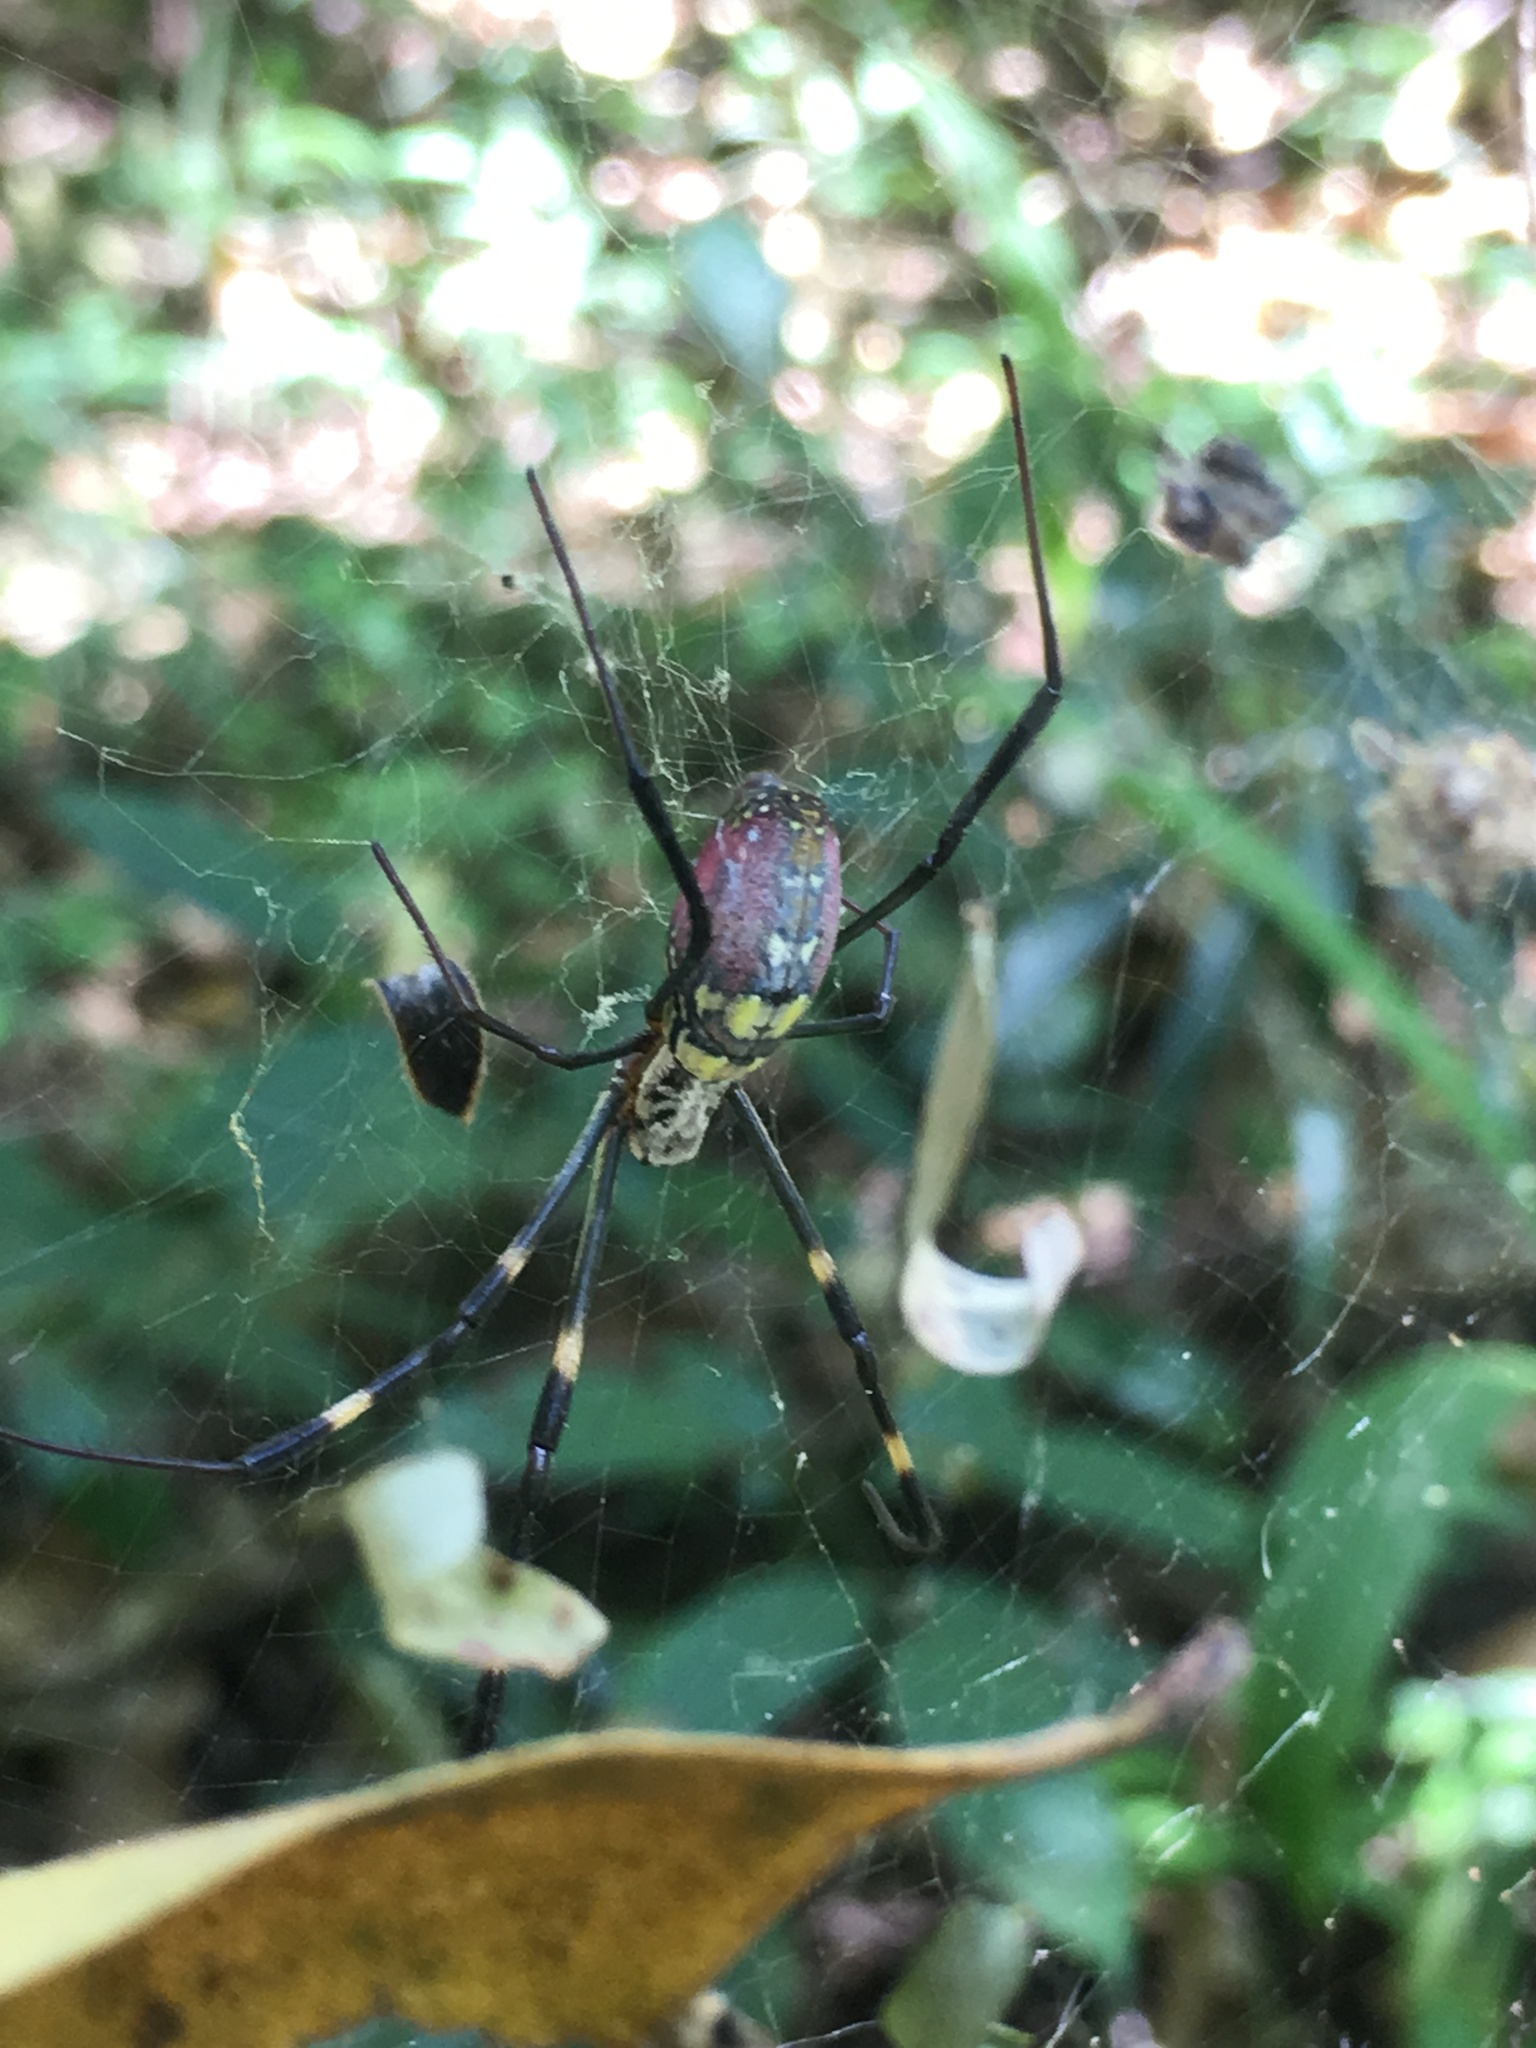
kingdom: Animalia
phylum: Arthropoda
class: Arachnida
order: Araneae
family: Araneidae
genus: Trichonephila
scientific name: Trichonephila clavata
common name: Jorō spider
